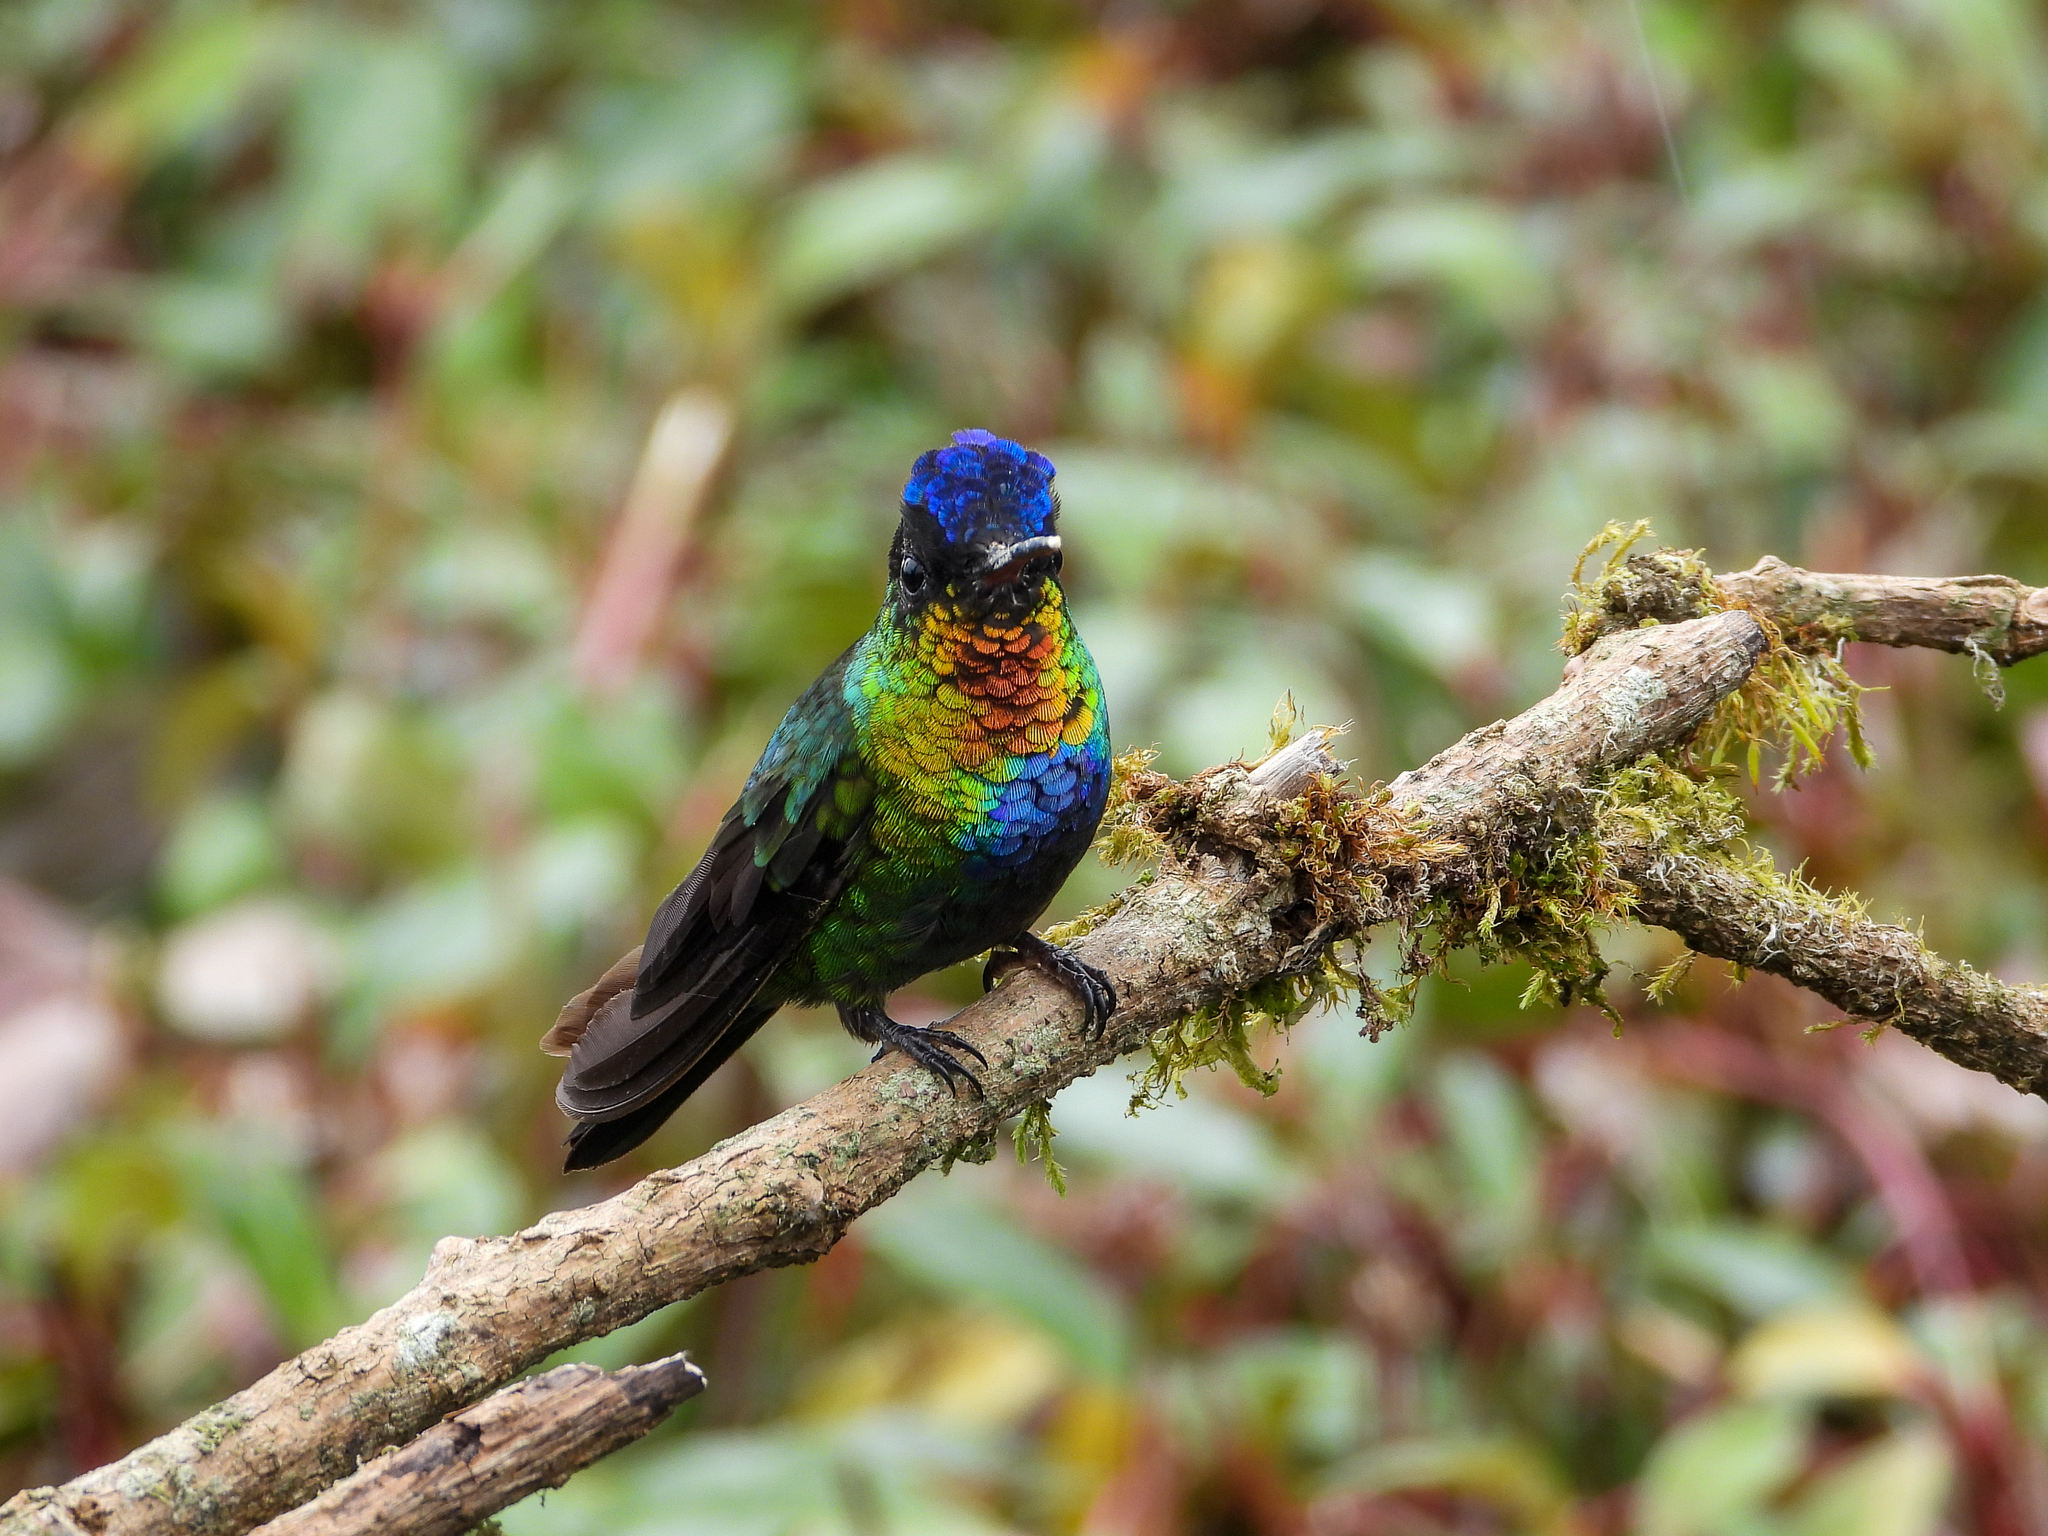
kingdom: Animalia
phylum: Chordata
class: Aves
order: Apodiformes
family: Trochilidae
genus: Panterpe
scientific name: Panterpe insignis
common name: Fiery-throated hummingbird
